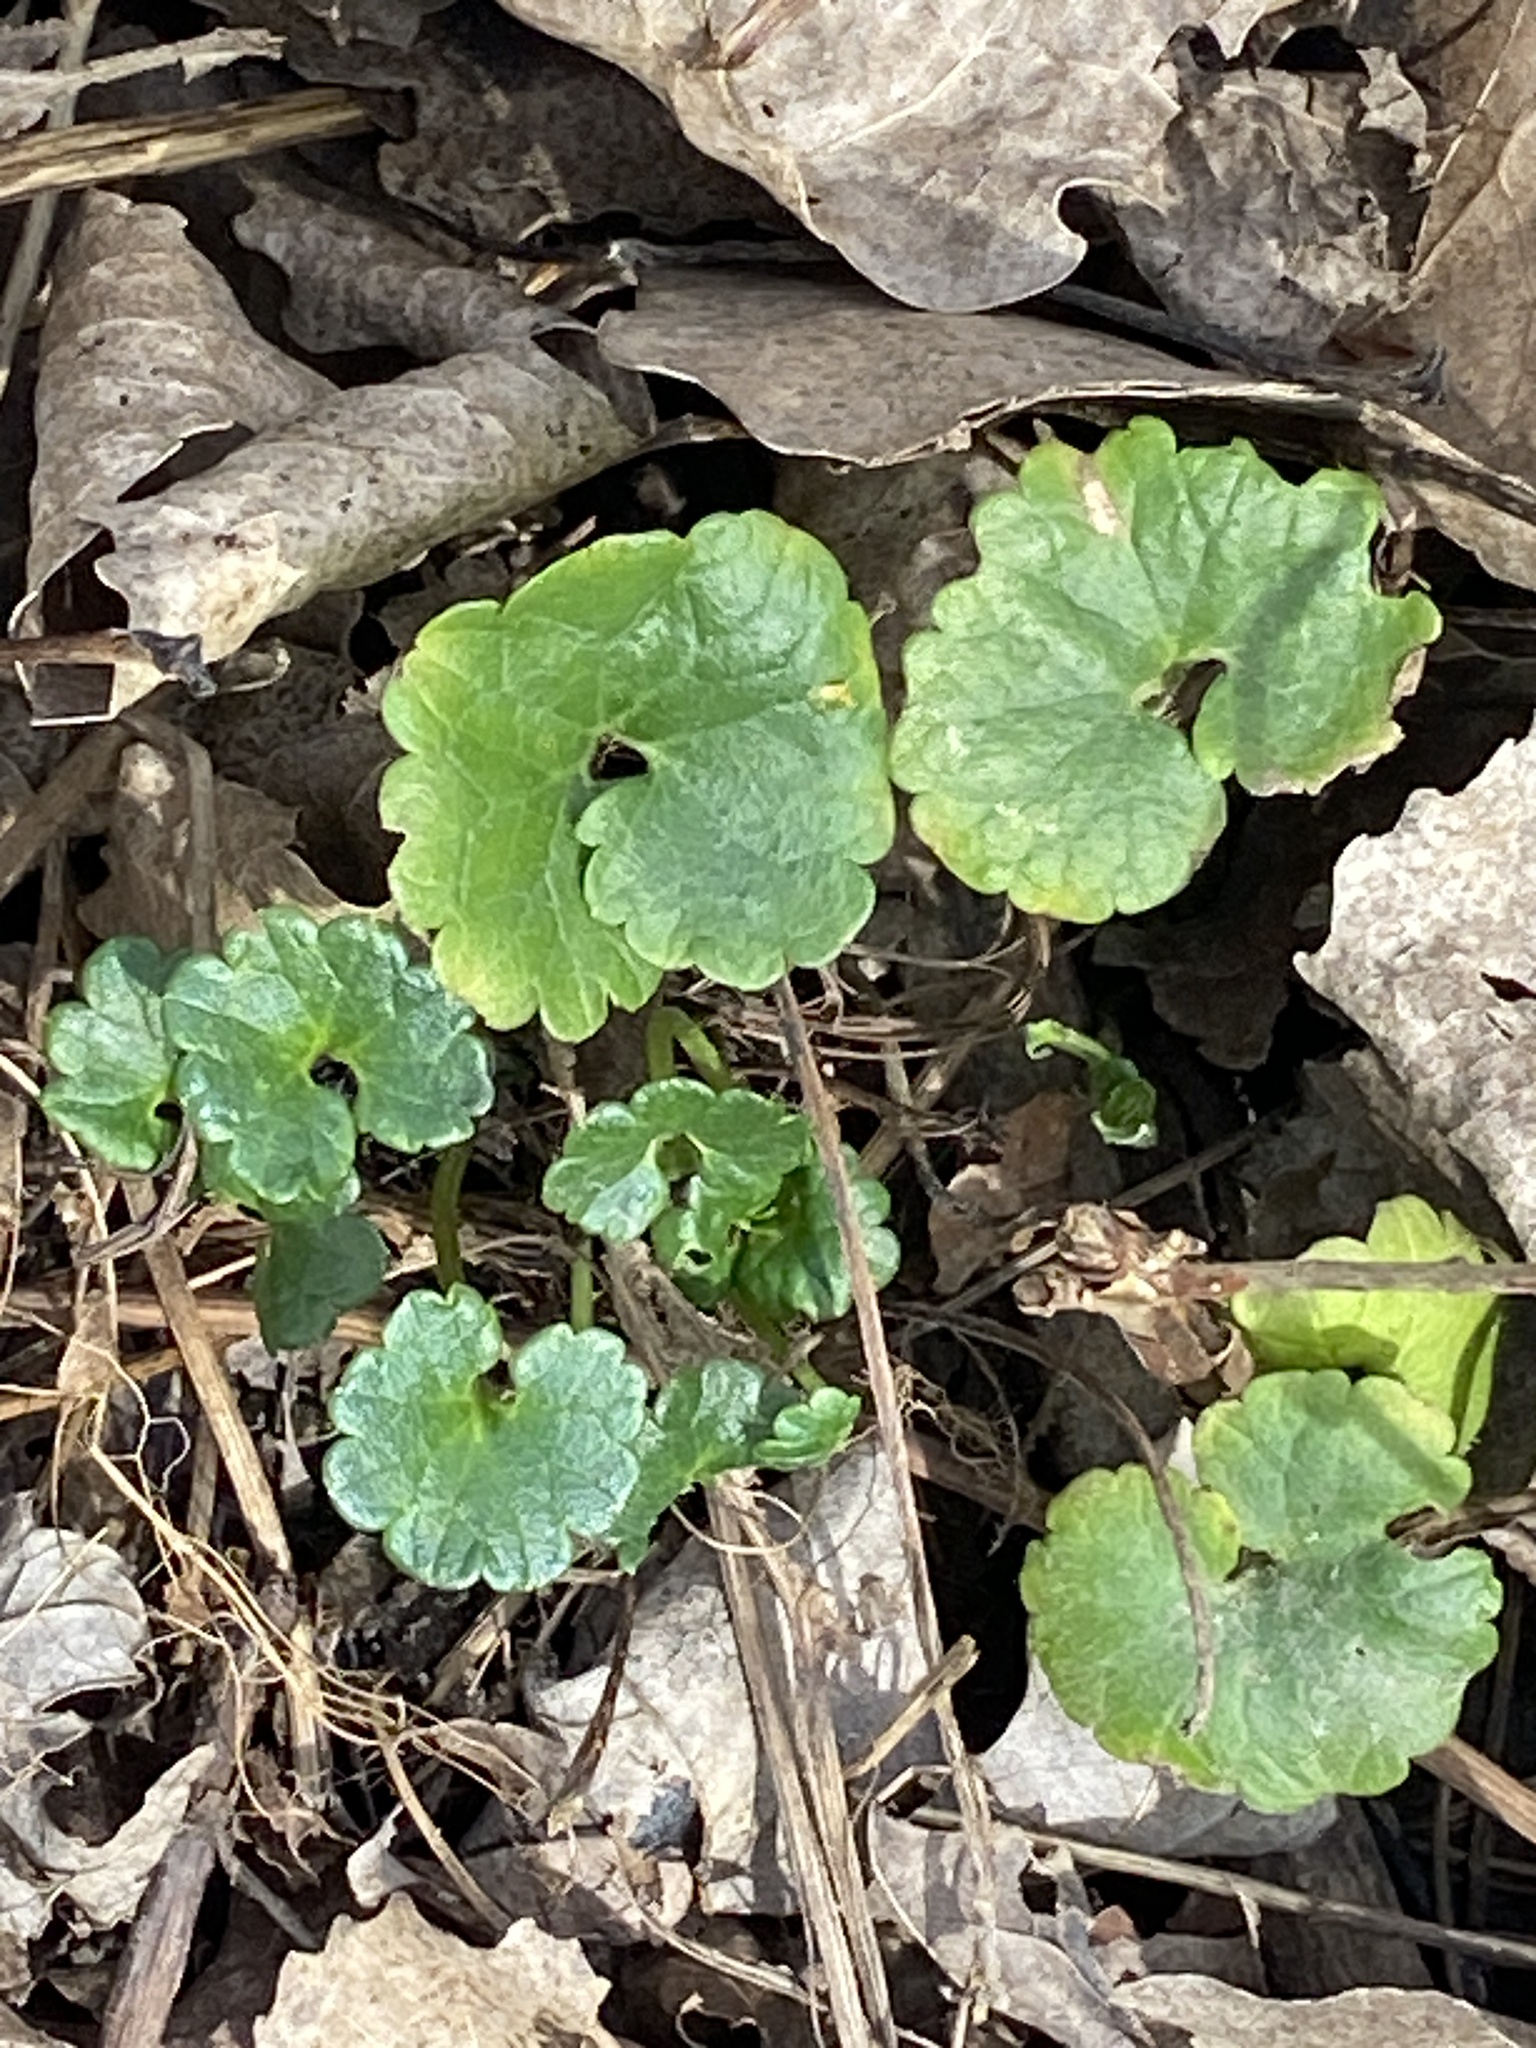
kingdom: Plantae
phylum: Tracheophyta
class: Magnoliopsida
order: Lamiales
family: Lamiaceae
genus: Glechoma
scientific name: Glechoma hederacea
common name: Ground ivy
